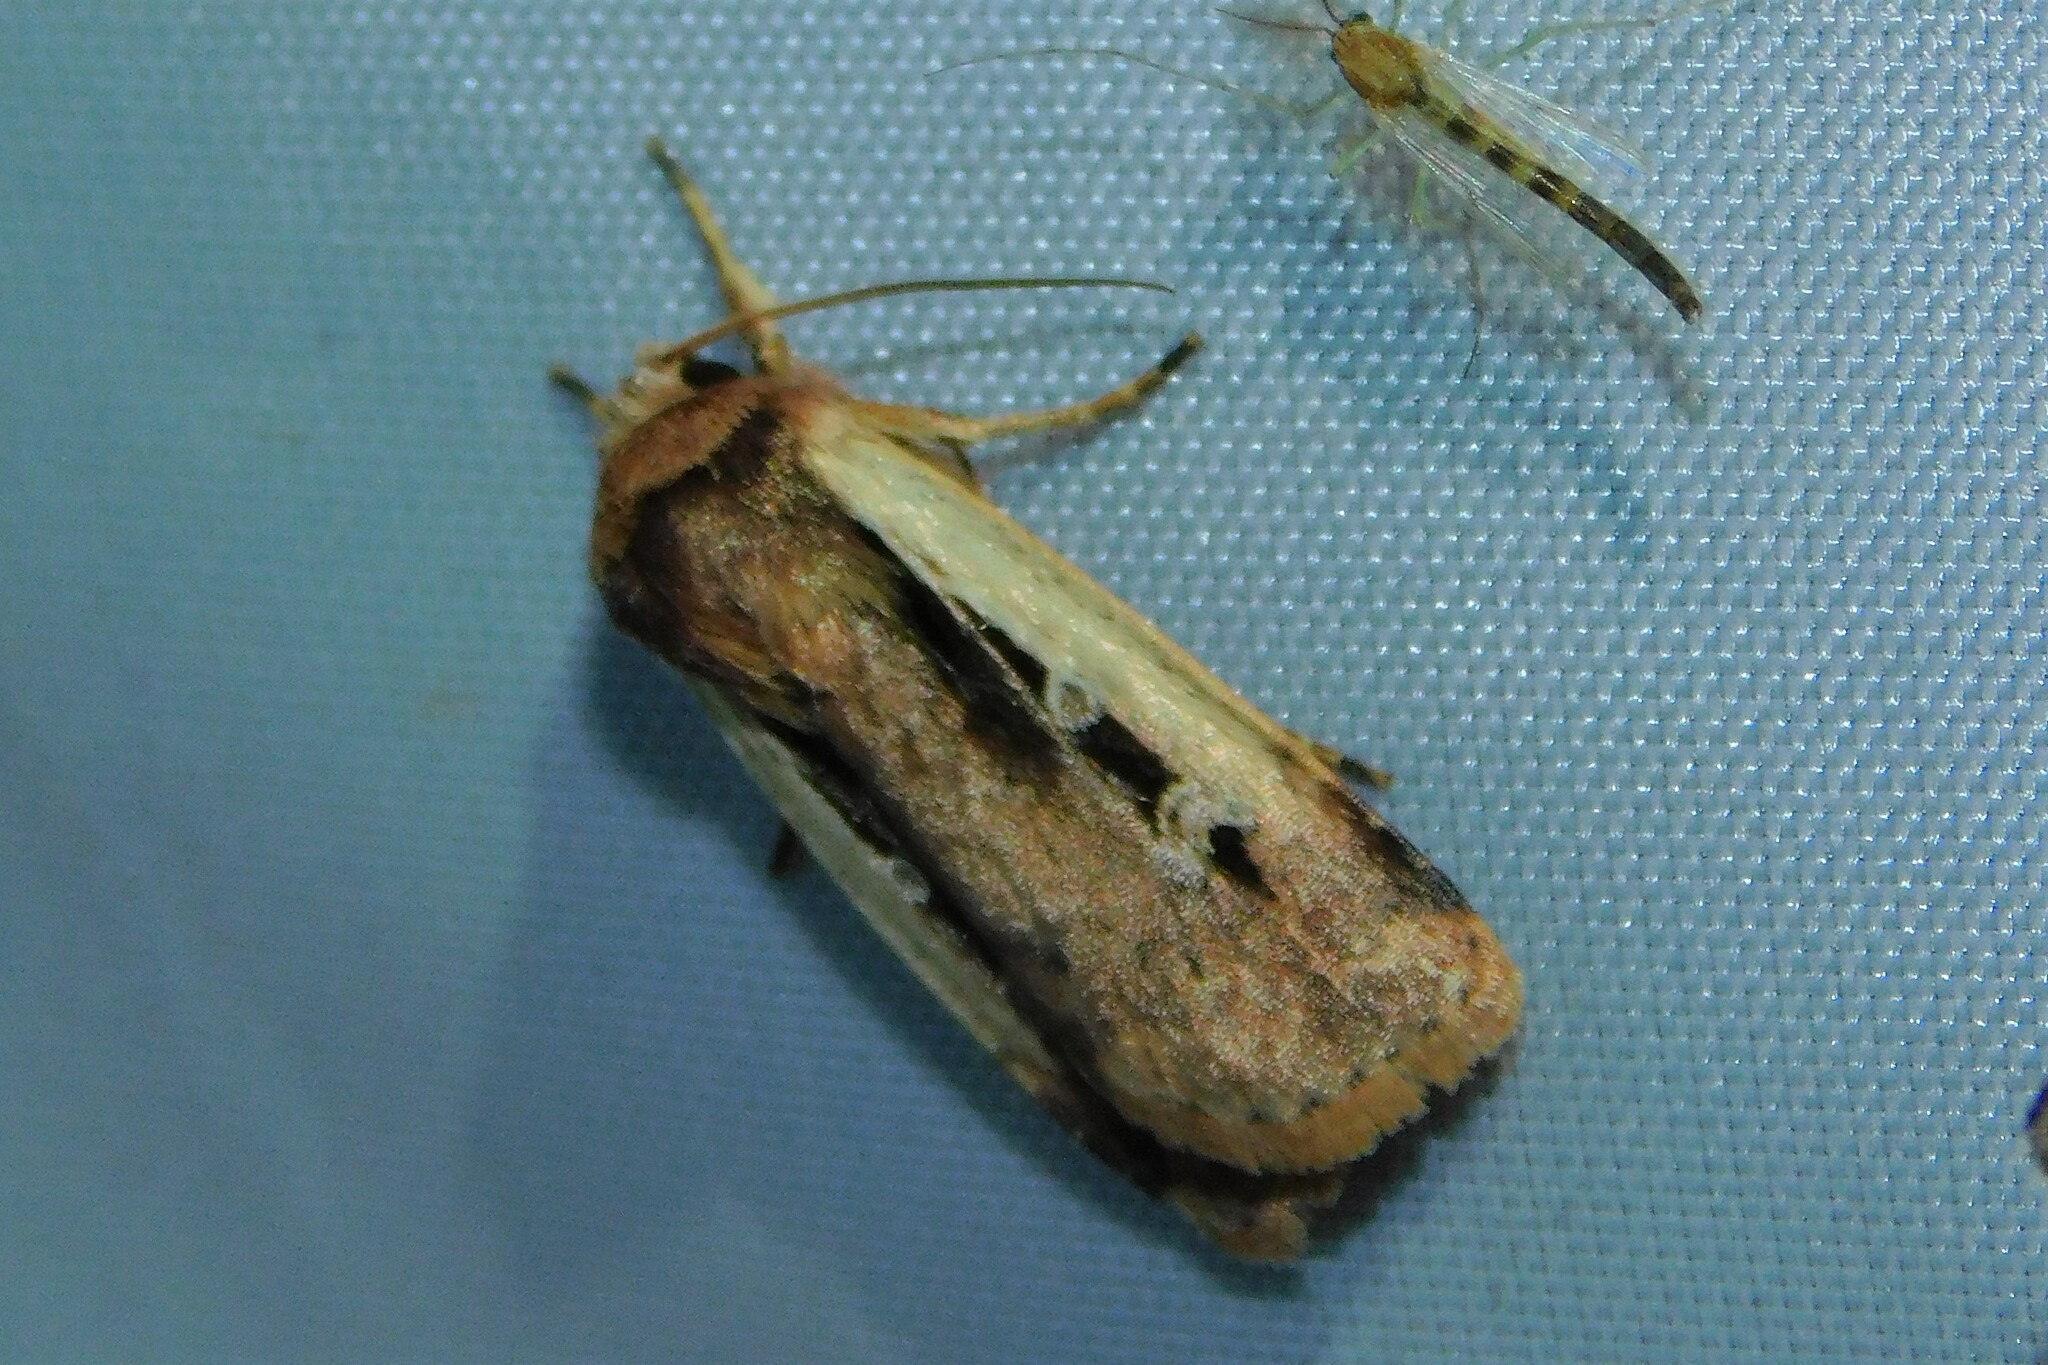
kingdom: Animalia
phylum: Arthropoda
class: Insecta
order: Lepidoptera
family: Noctuidae
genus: Ochropleura
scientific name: Ochropleura plecta
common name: Flame shoulder
